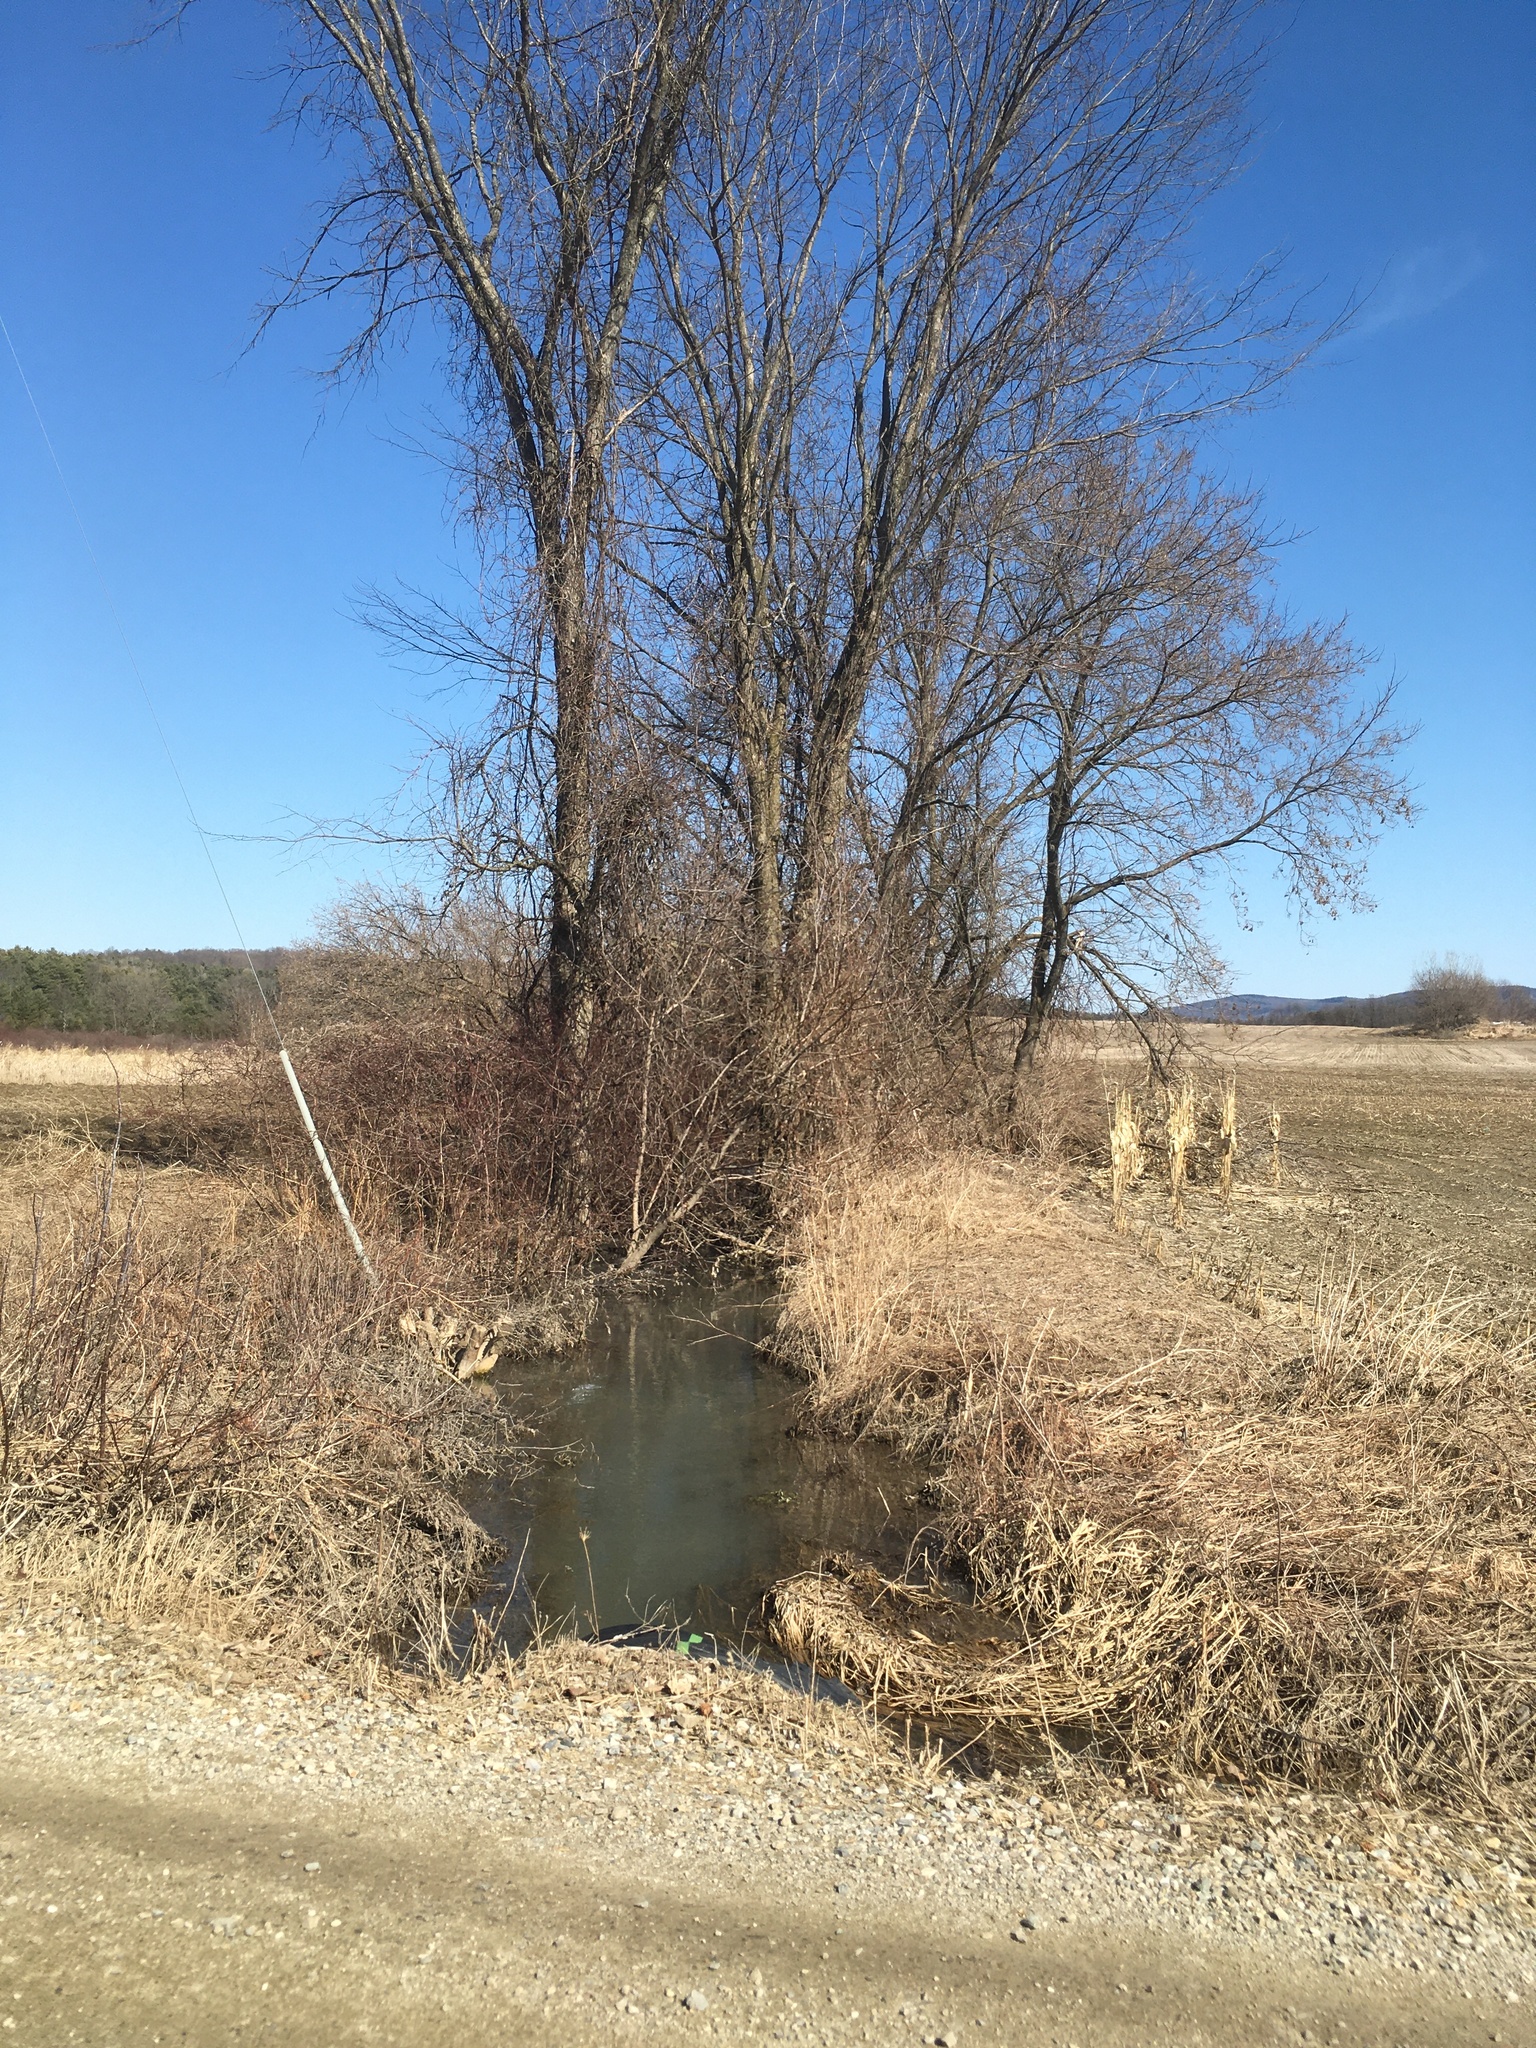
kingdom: Plantae
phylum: Tracheophyta
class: Magnoliopsida
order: Rosales
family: Ulmaceae
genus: Ulmus
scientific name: Ulmus americana
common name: American elm
